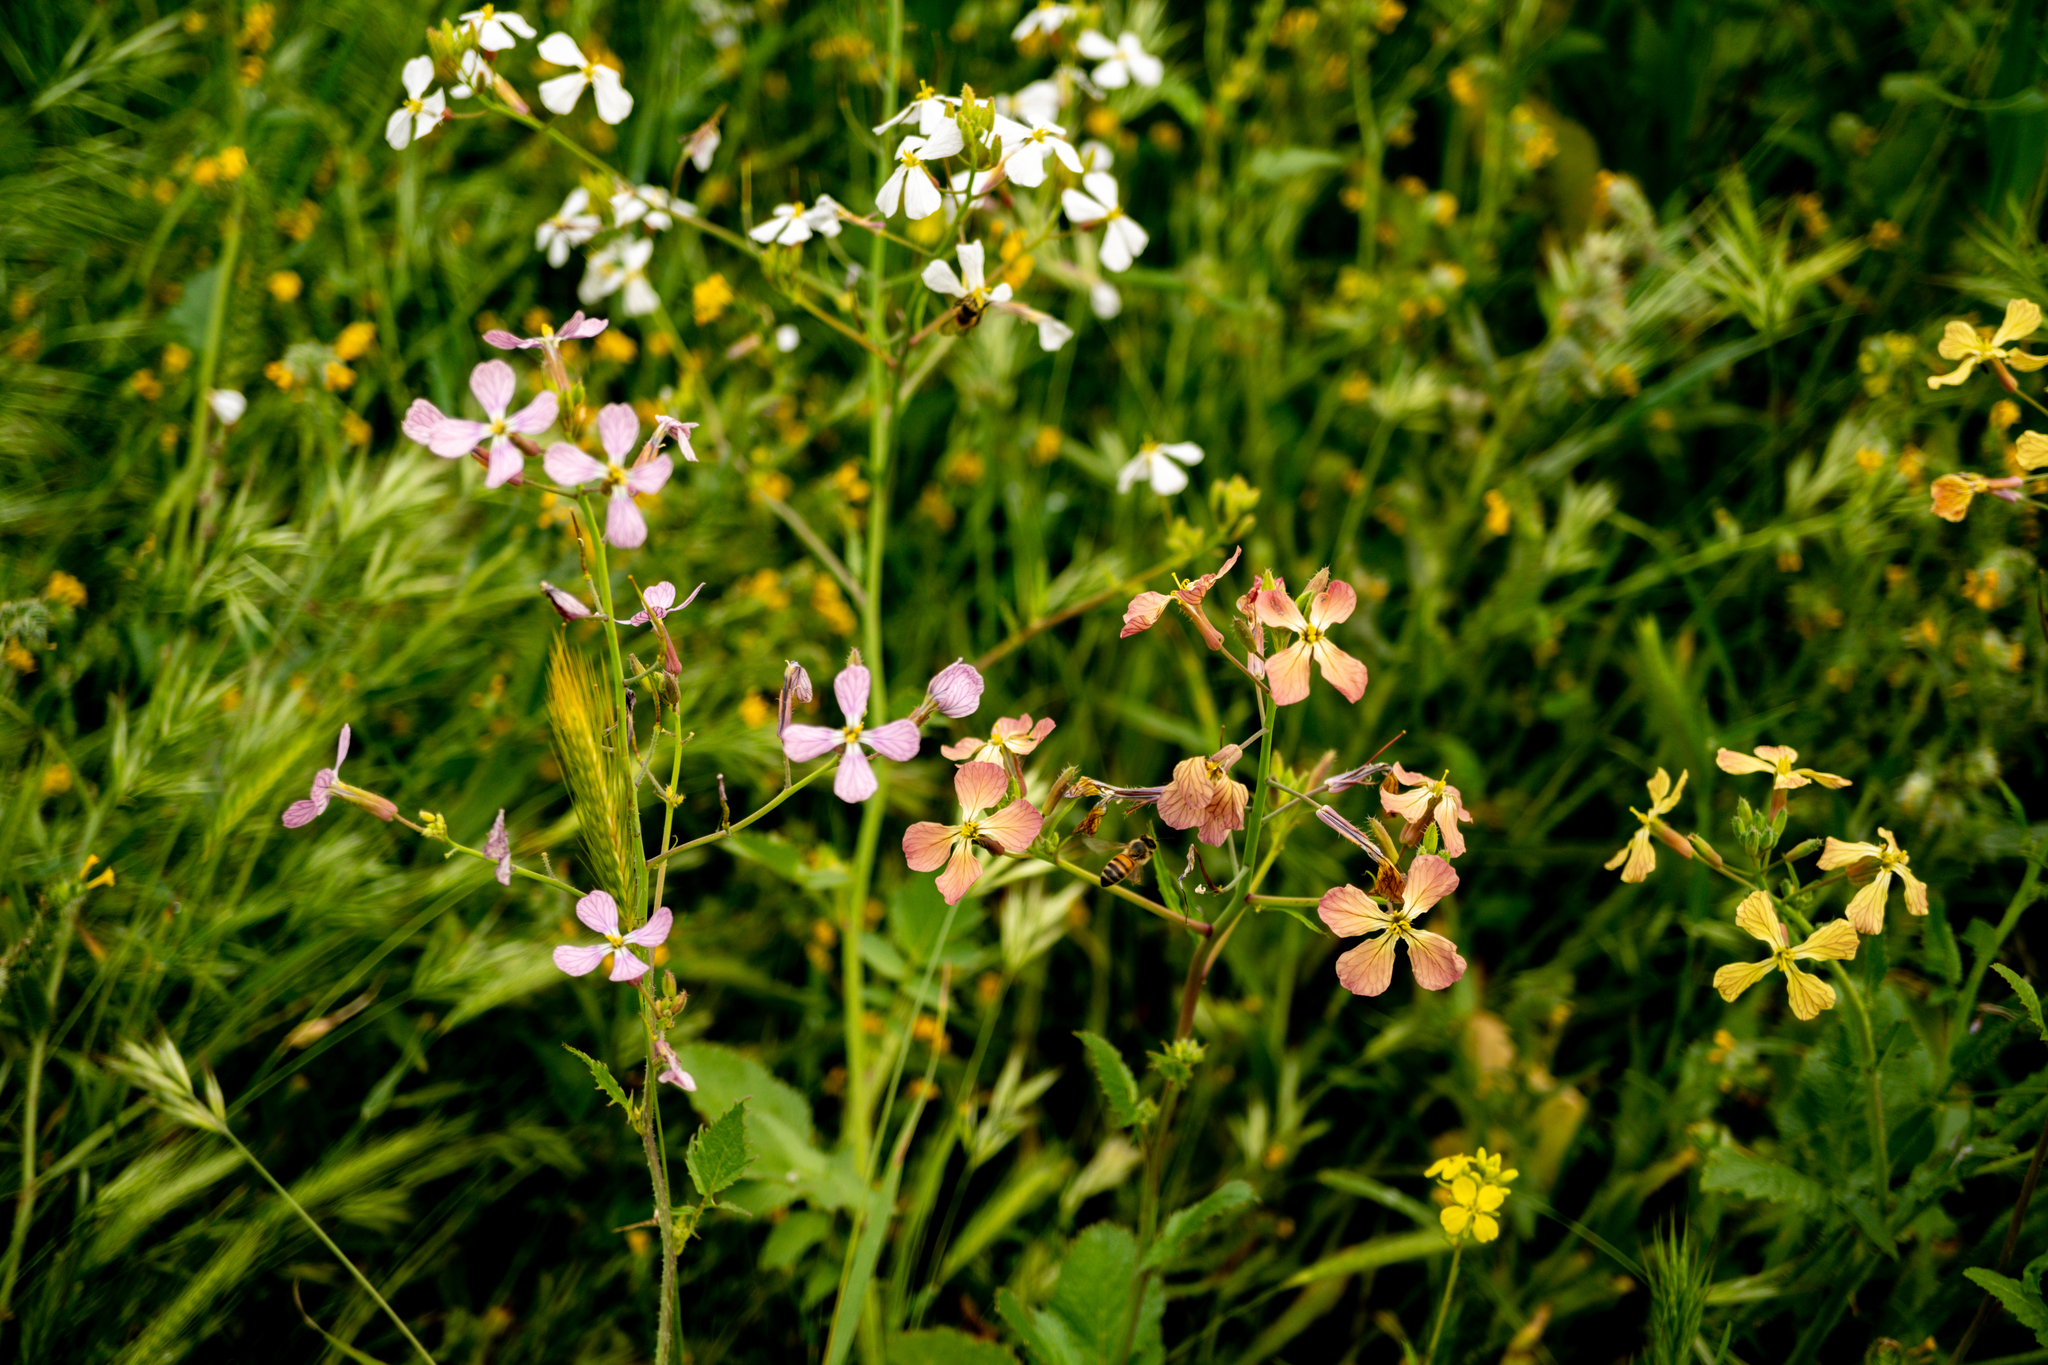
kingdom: Plantae
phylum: Tracheophyta
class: Magnoliopsida
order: Brassicales
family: Brassicaceae
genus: Raphanus
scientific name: Raphanus raphanistrum
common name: Wild radish
